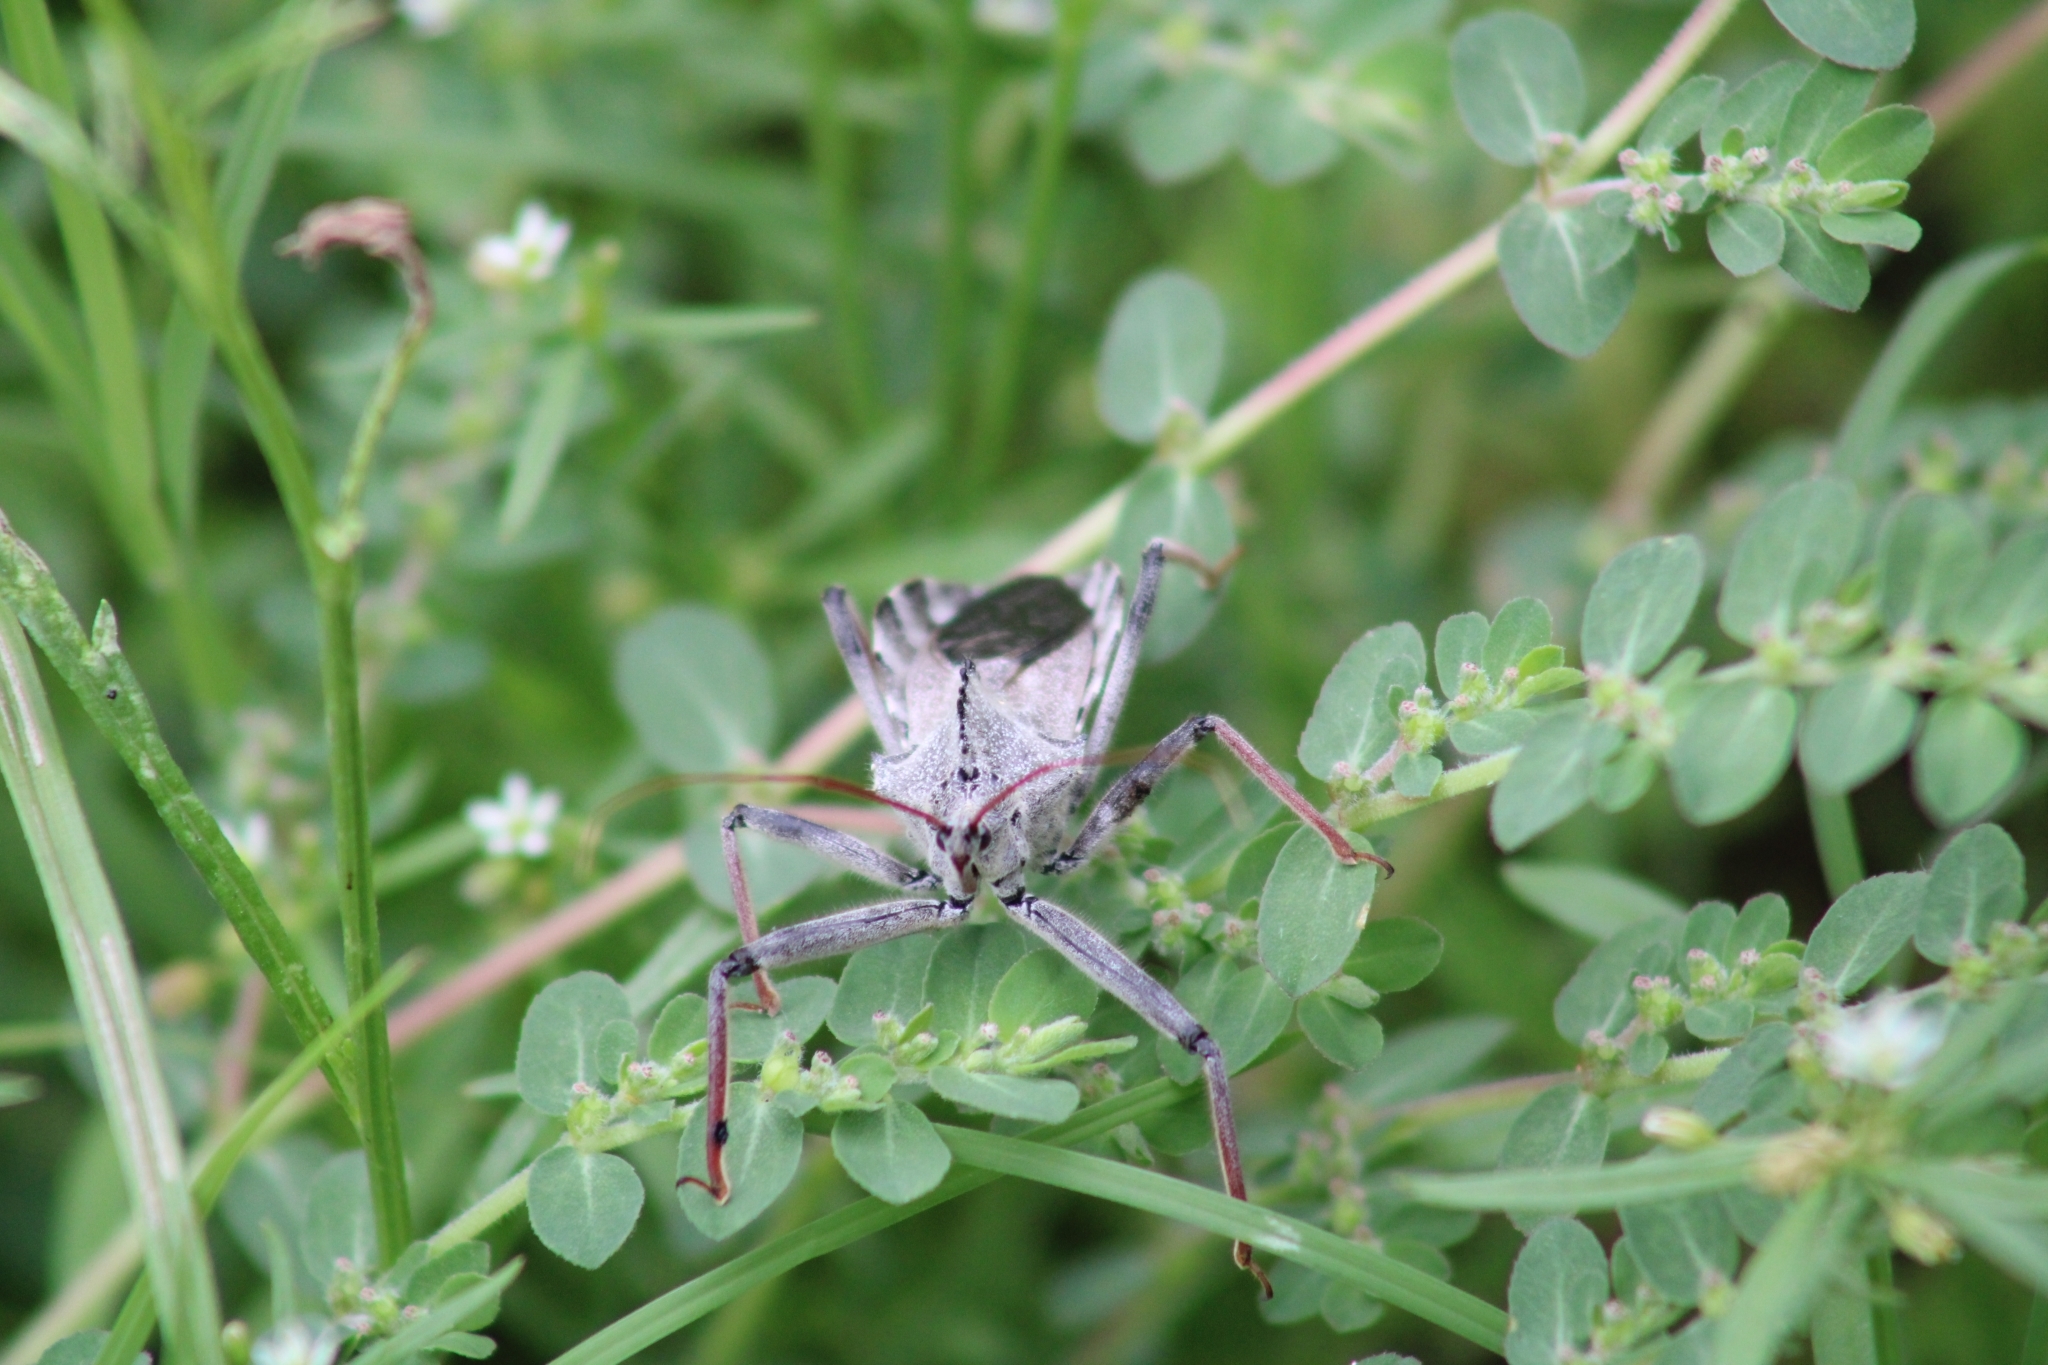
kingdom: Animalia
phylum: Arthropoda
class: Insecta
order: Hemiptera
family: Reduviidae
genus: Arilus
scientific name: Arilus cristatus
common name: North american wheel bug
